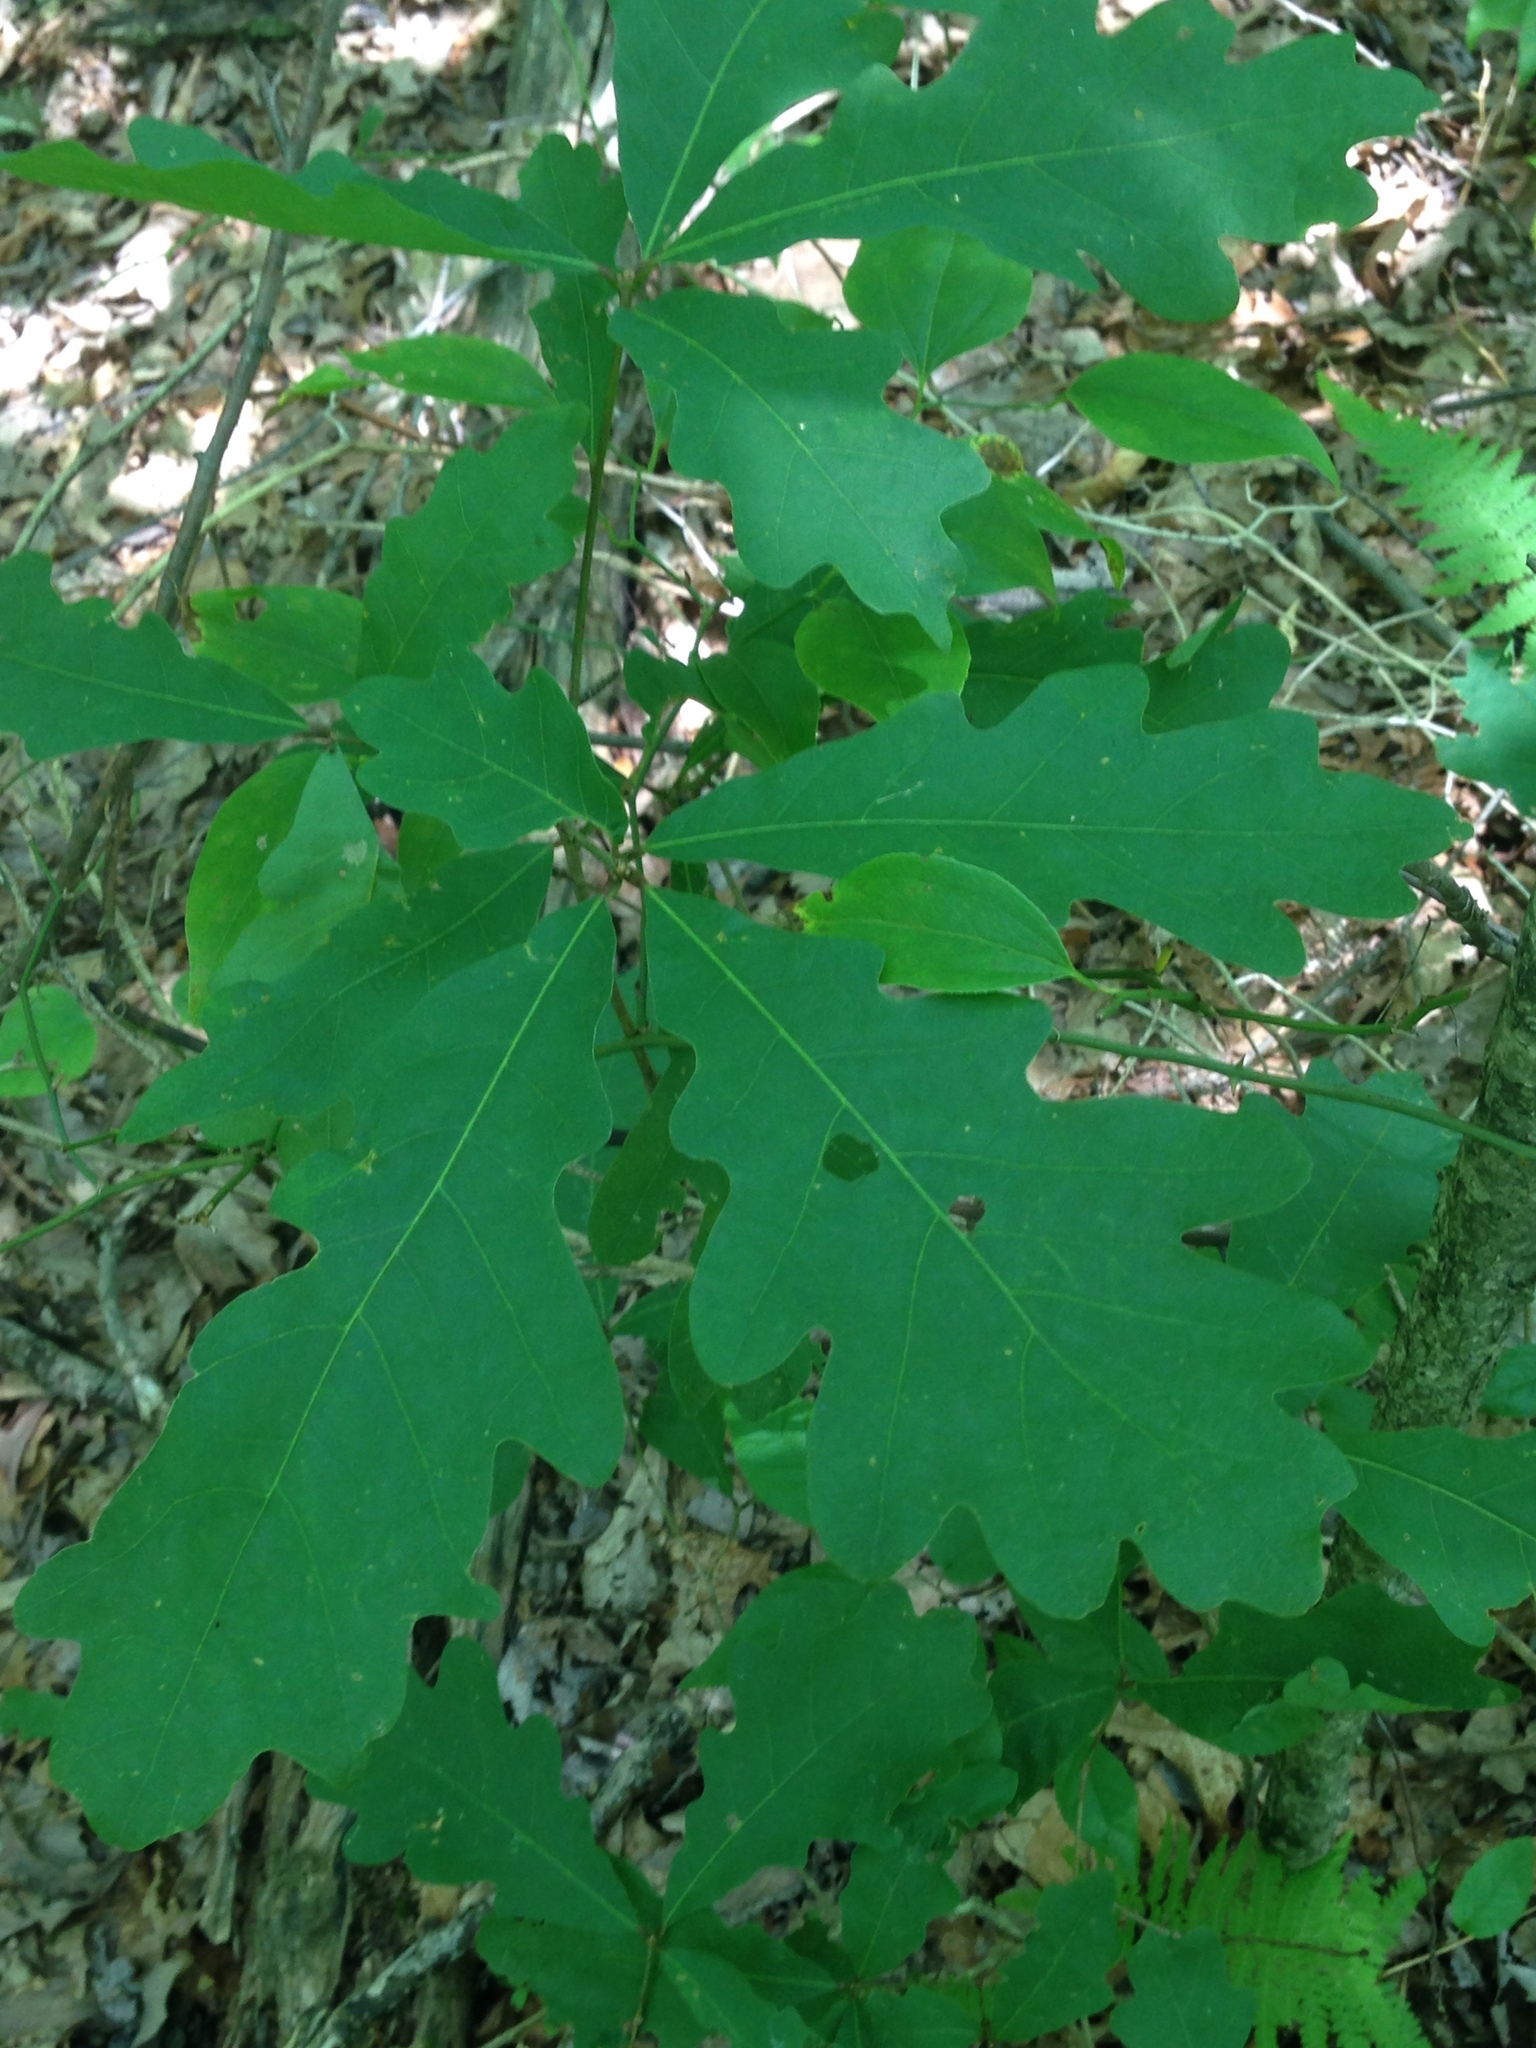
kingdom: Plantae
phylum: Tracheophyta
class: Magnoliopsida
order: Fagales
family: Fagaceae
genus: Quercus
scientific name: Quercus alba
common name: White oak
